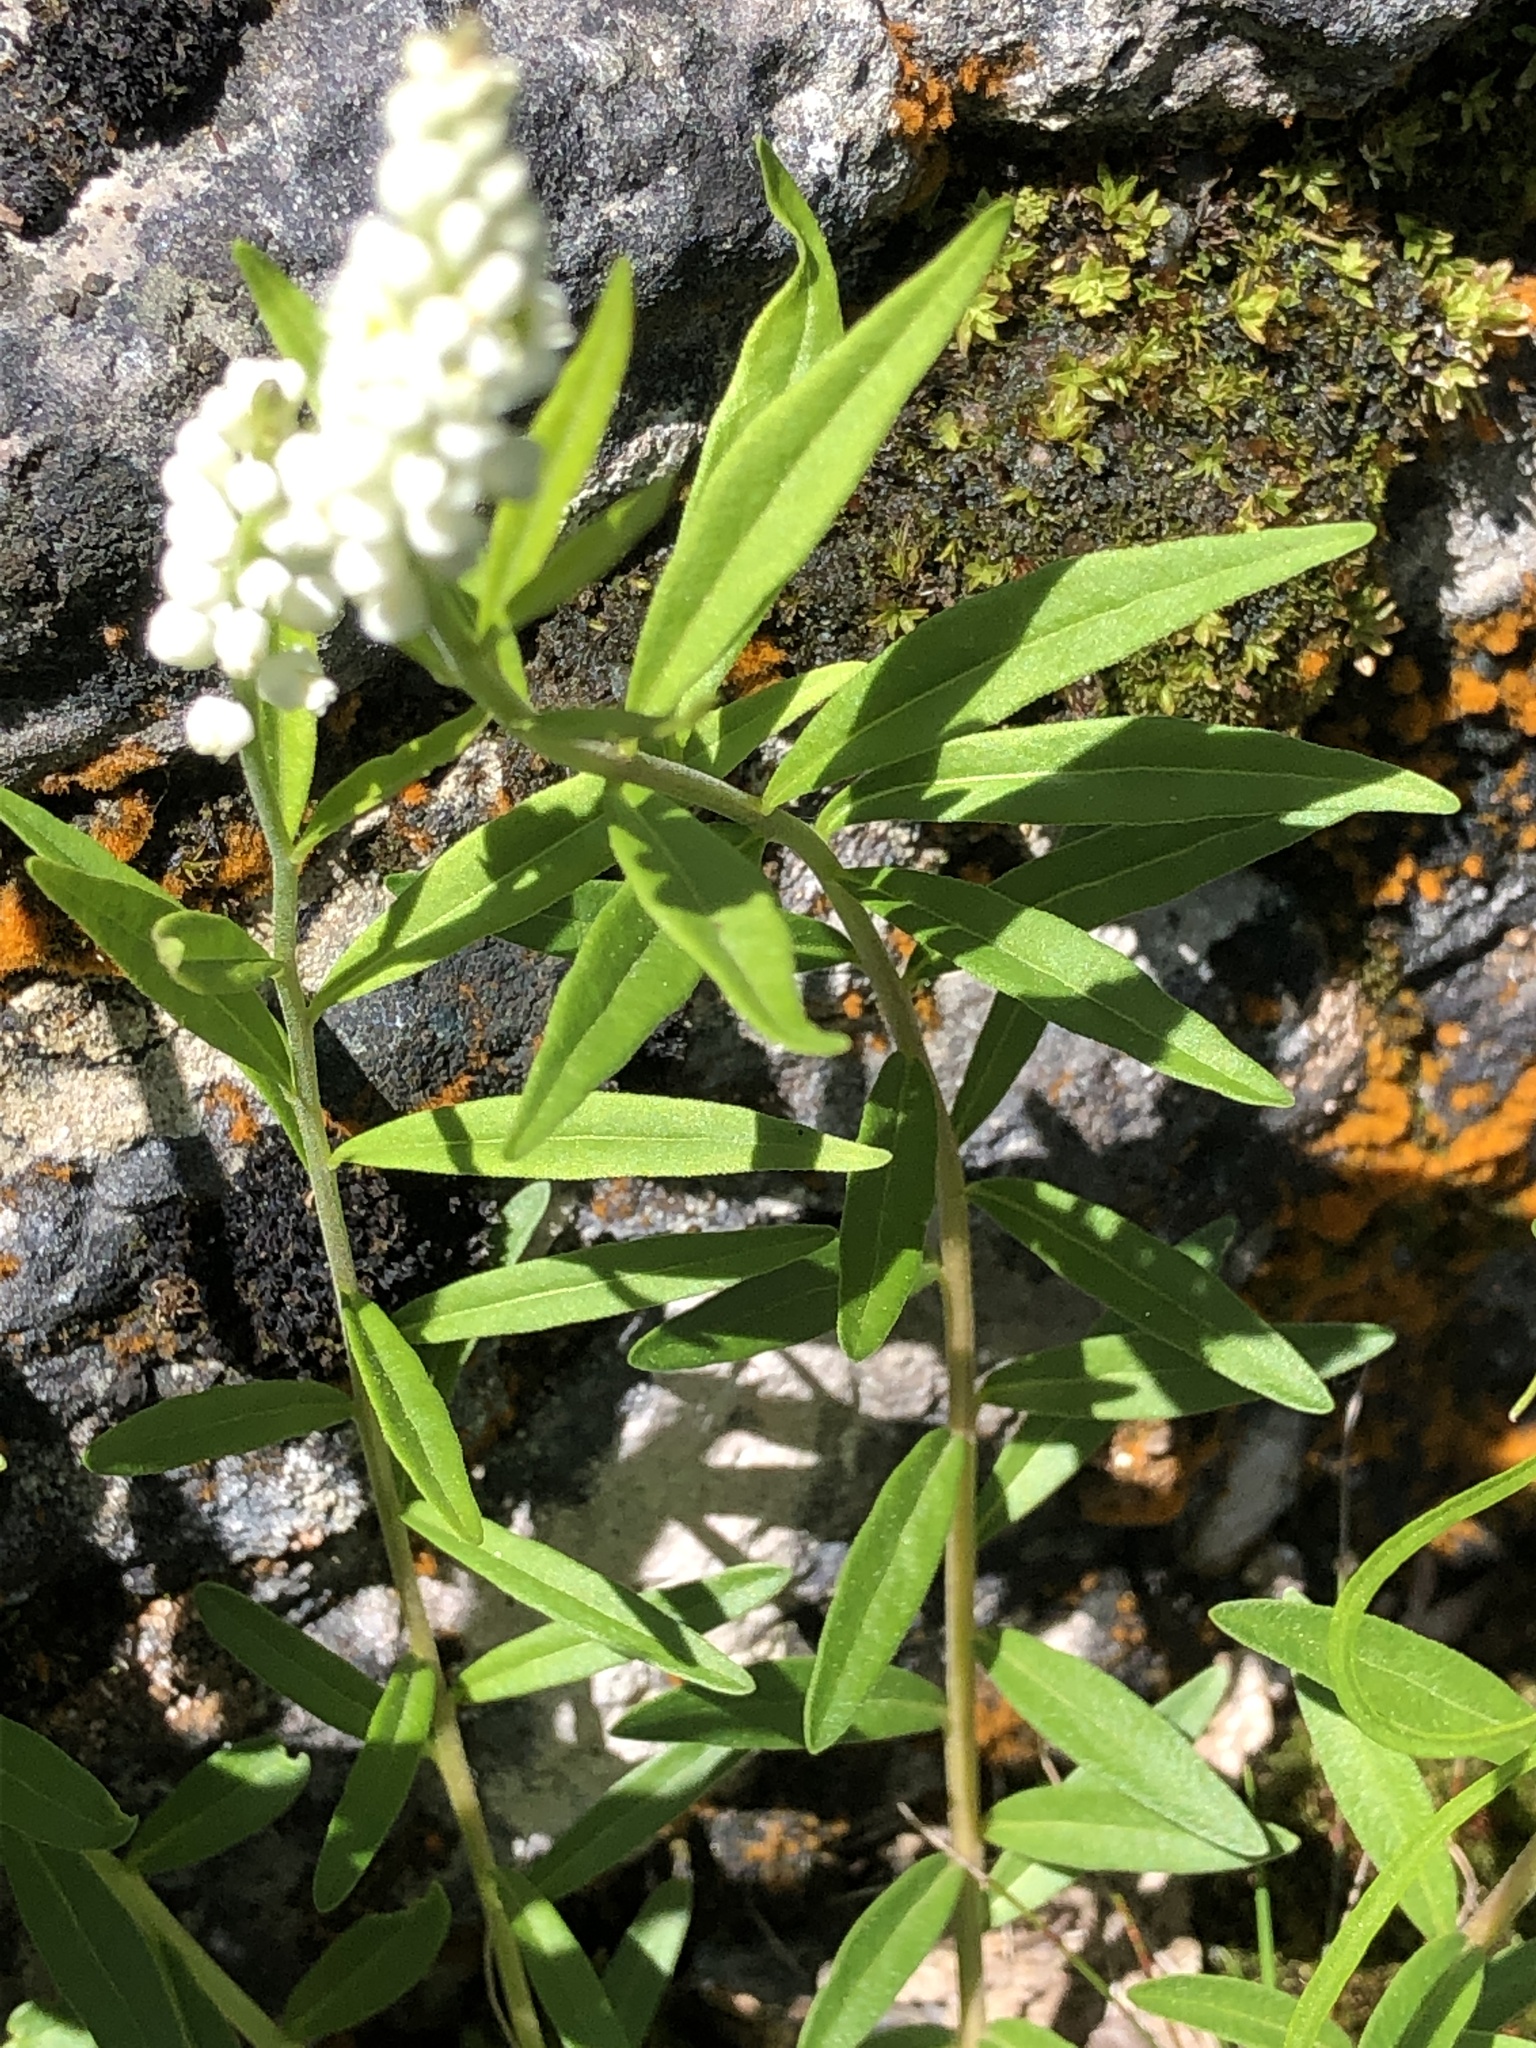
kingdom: Plantae
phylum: Tracheophyta
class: Magnoliopsida
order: Fabales
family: Polygalaceae
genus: Polygala
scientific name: Polygala senega
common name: Seneca snakeroot
